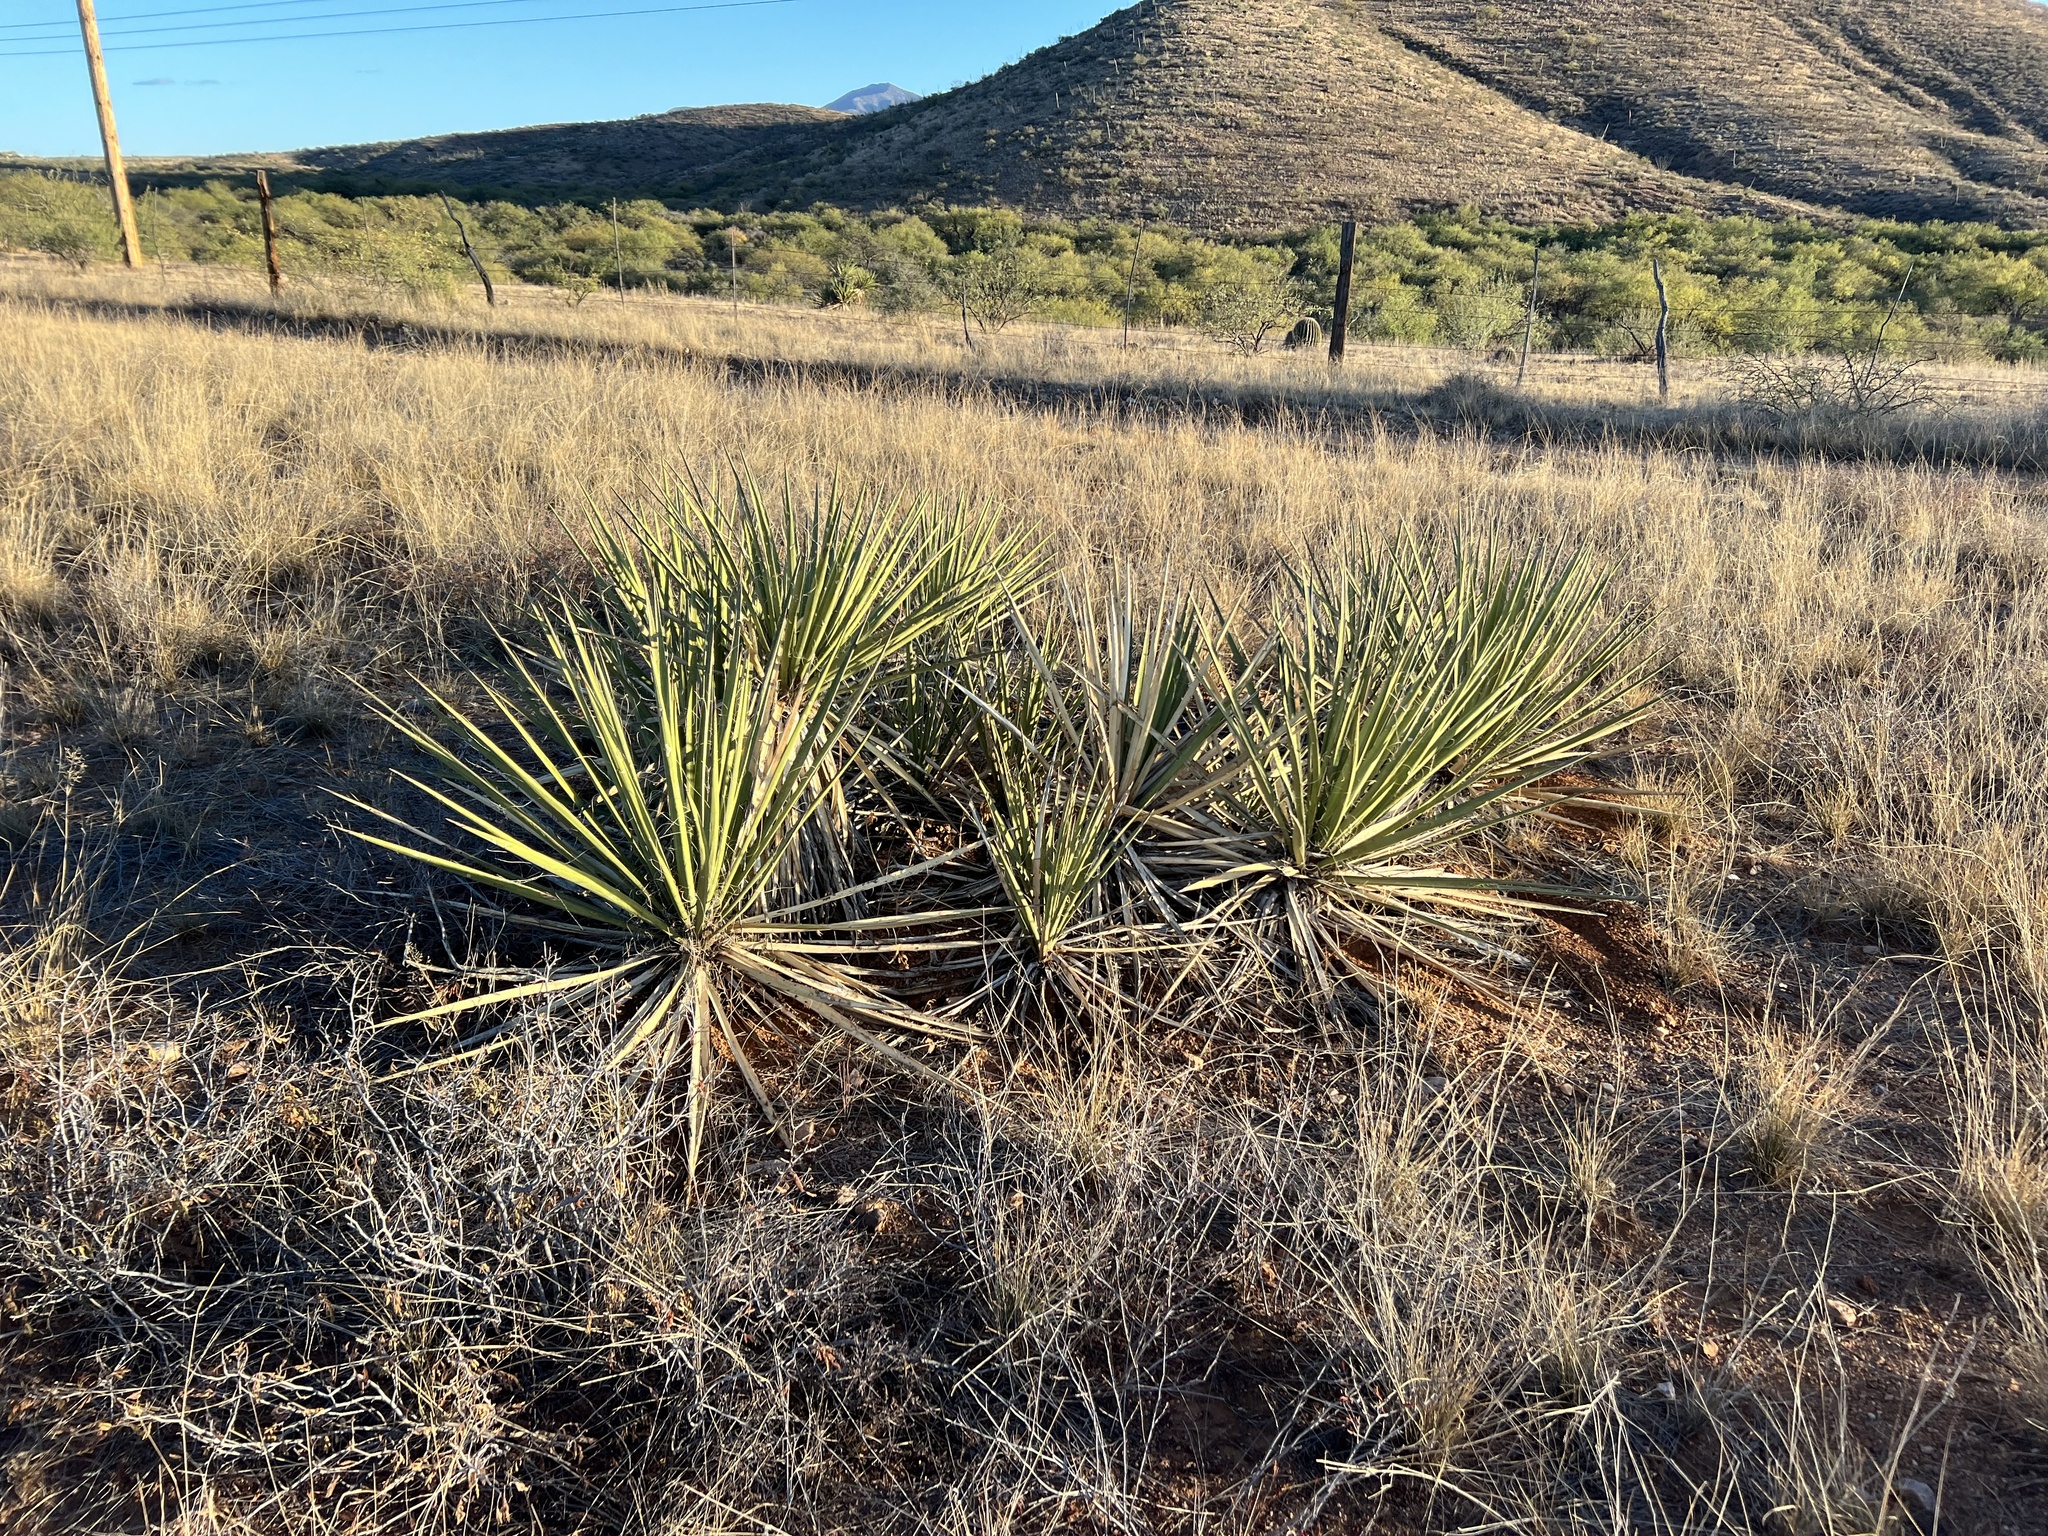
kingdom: Plantae
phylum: Tracheophyta
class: Liliopsida
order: Asparagales
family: Asparagaceae
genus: Yucca
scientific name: Yucca baccata
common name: Banana yucca
